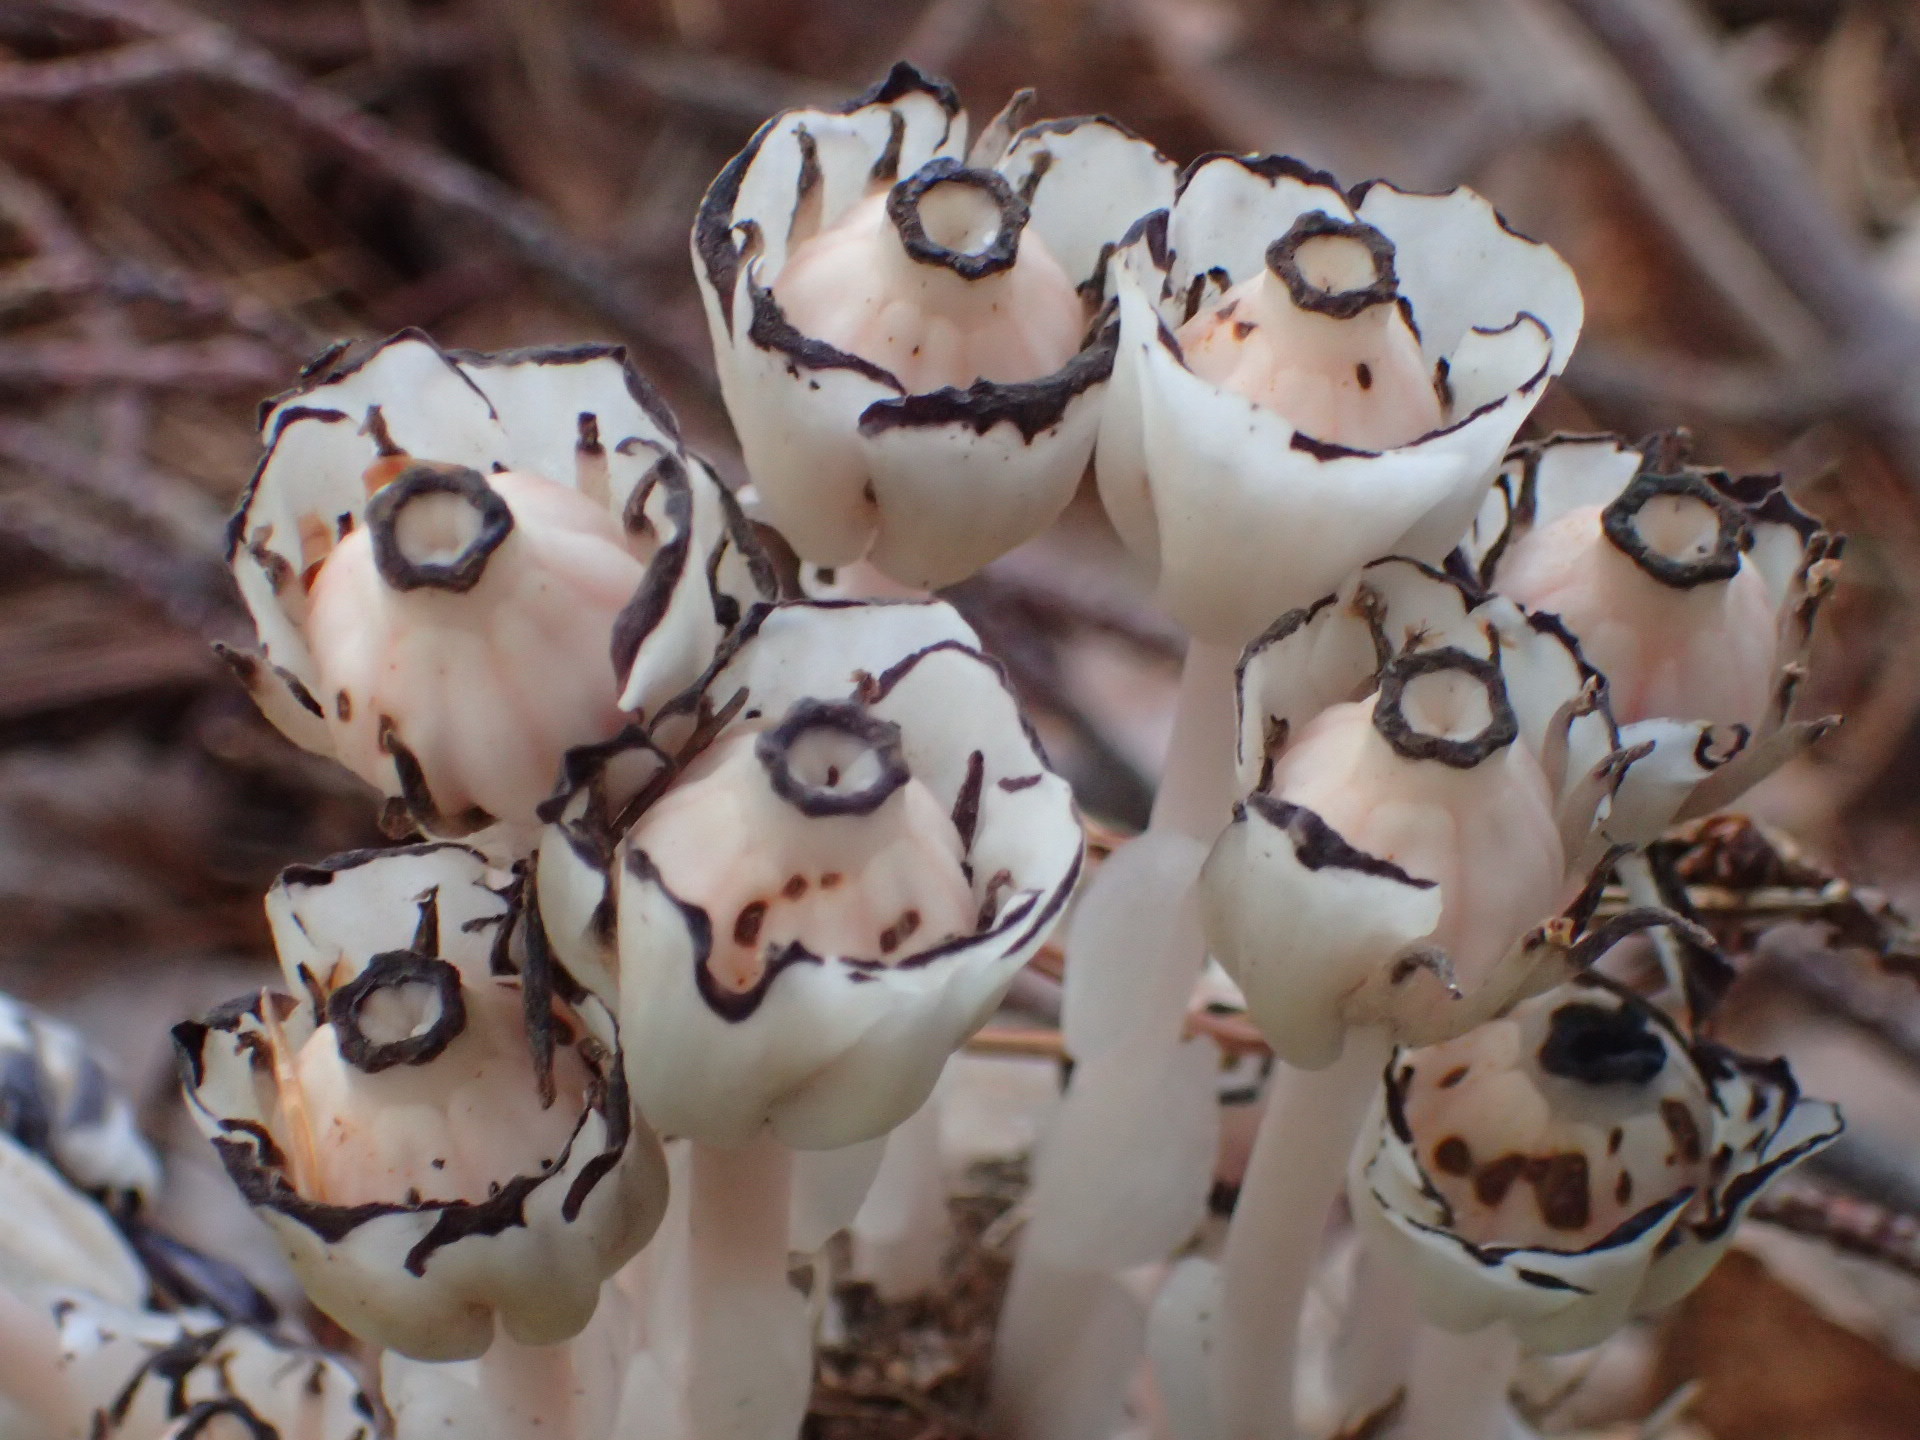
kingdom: Plantae
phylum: Tracheophyta
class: Magnoliopsida
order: Ericales
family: Ericaceae
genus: Monotropa
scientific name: Monotropa uniflora
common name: Convulsion root
